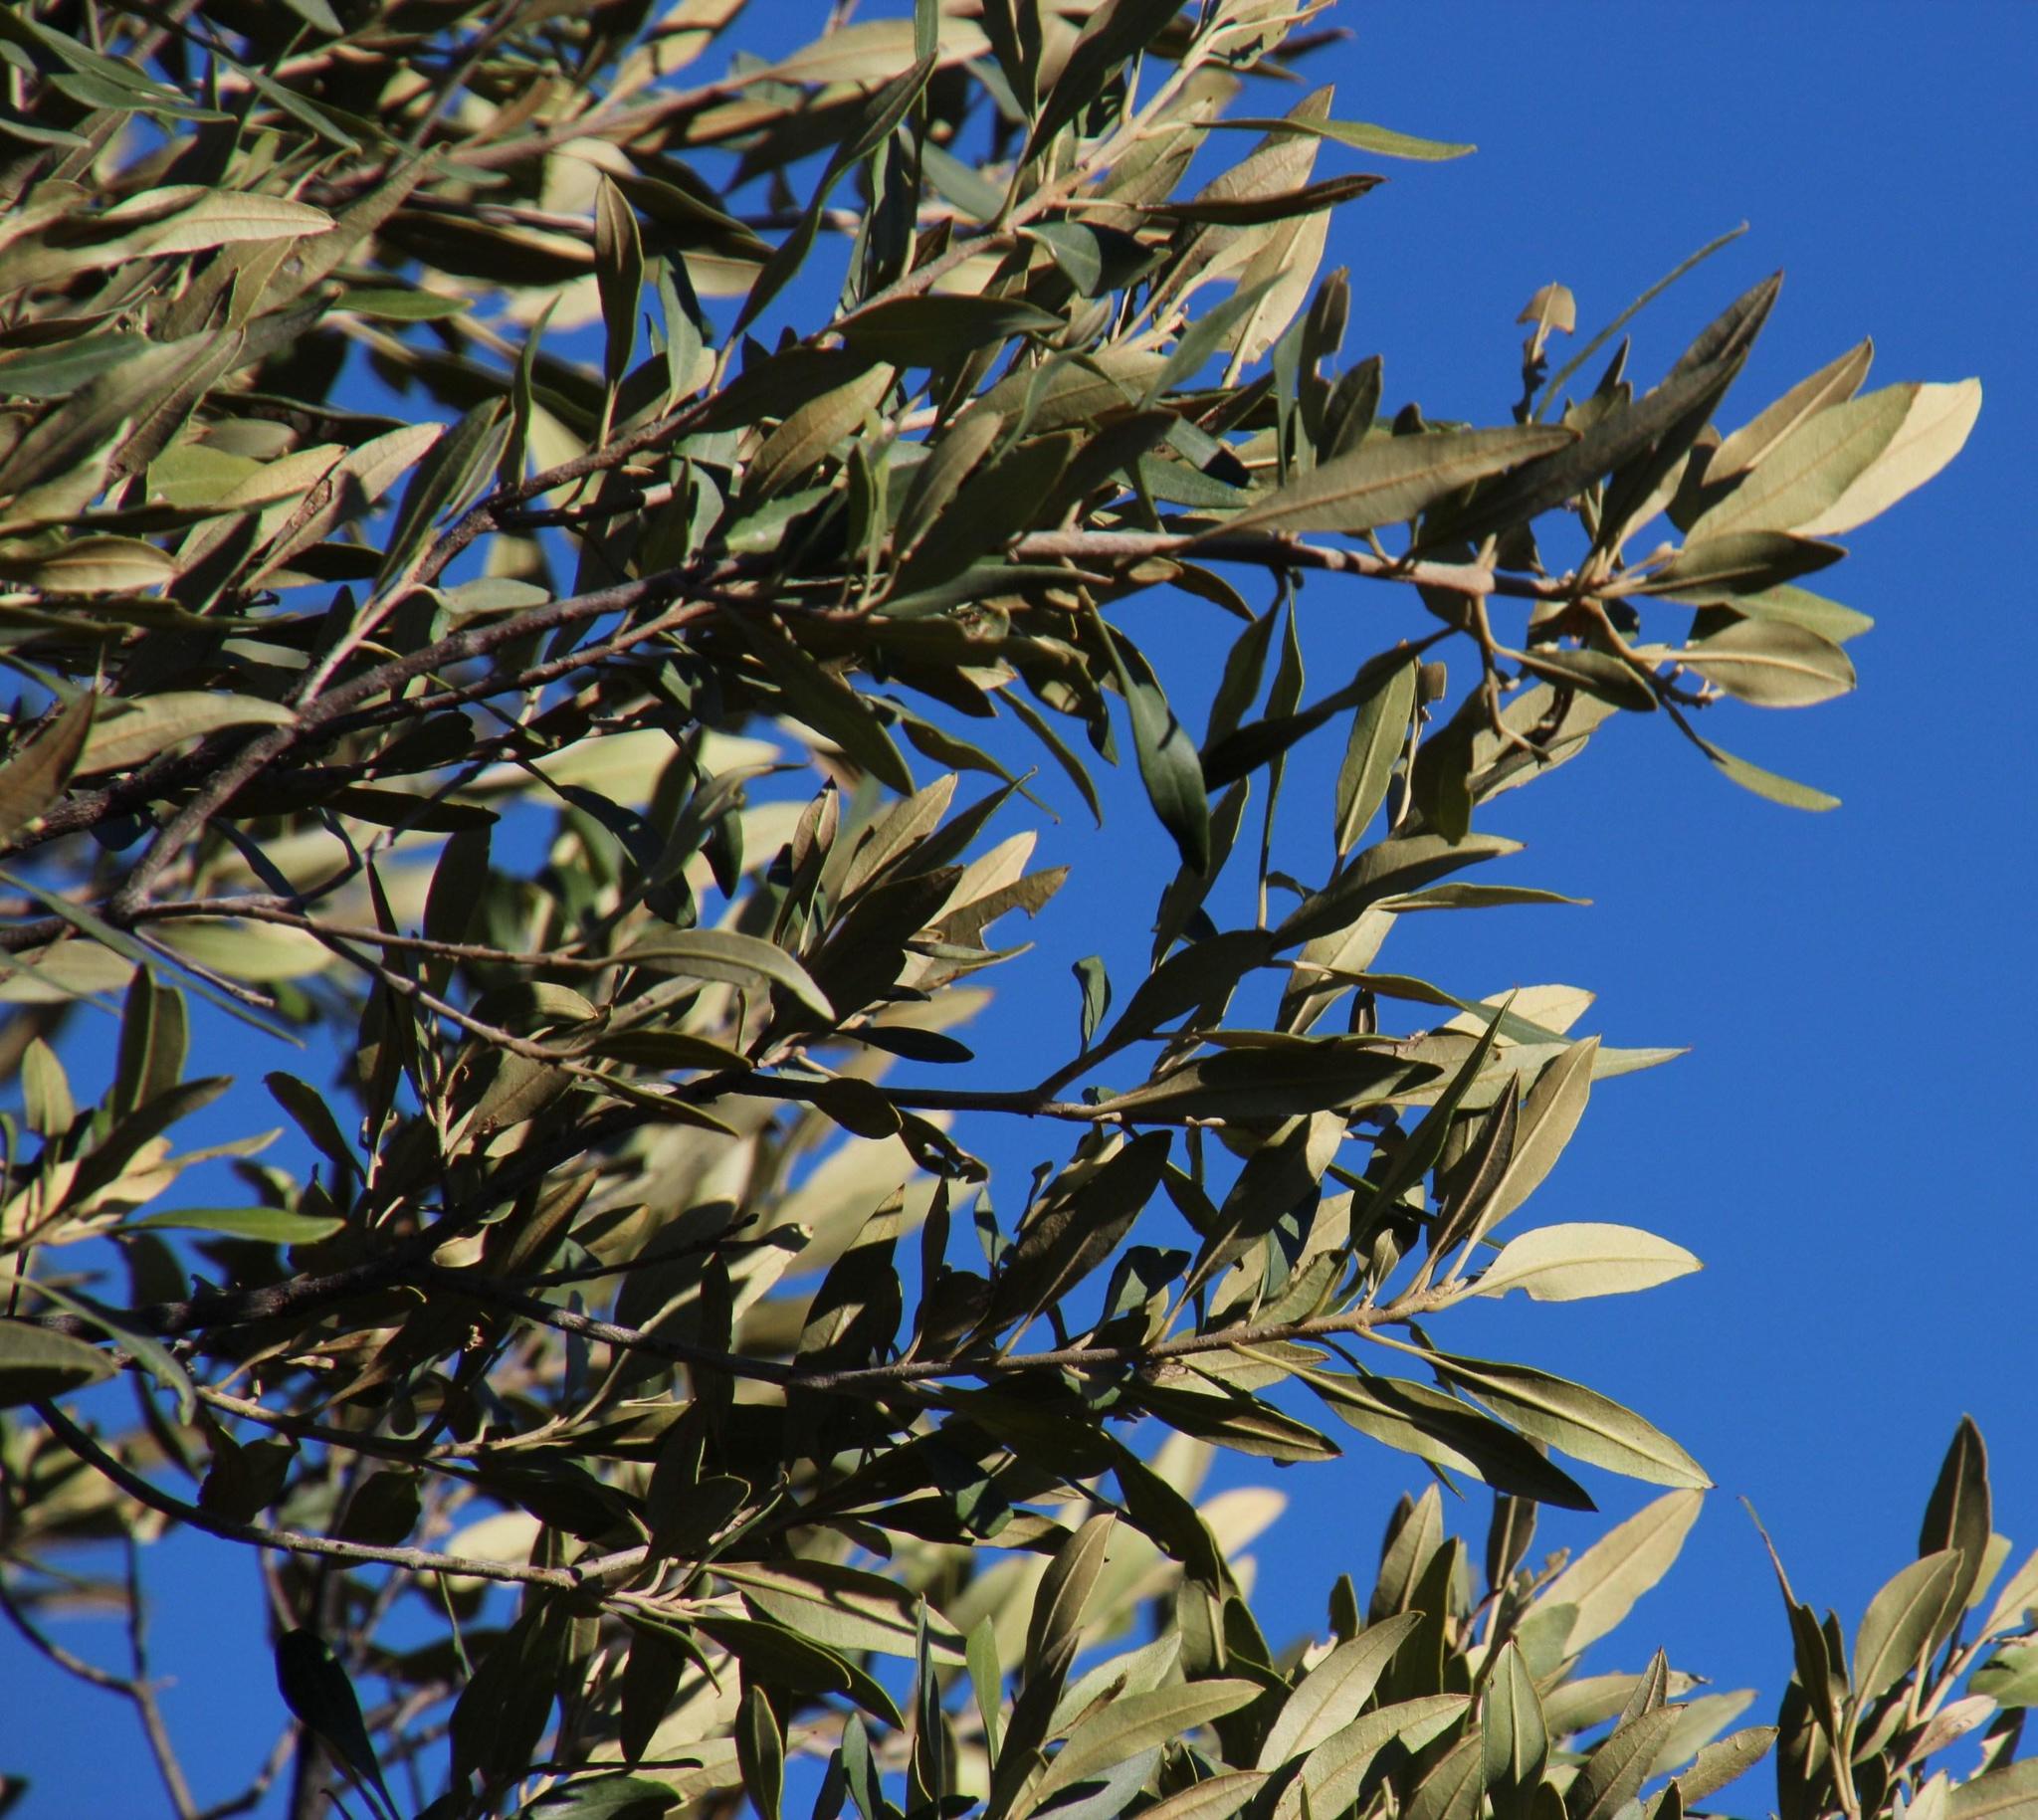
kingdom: Plantae
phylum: Tracheophyta
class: Magnoliopsida
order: Lamiales
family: Oleaceae
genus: Olea
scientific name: Olea europaea
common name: Olive
